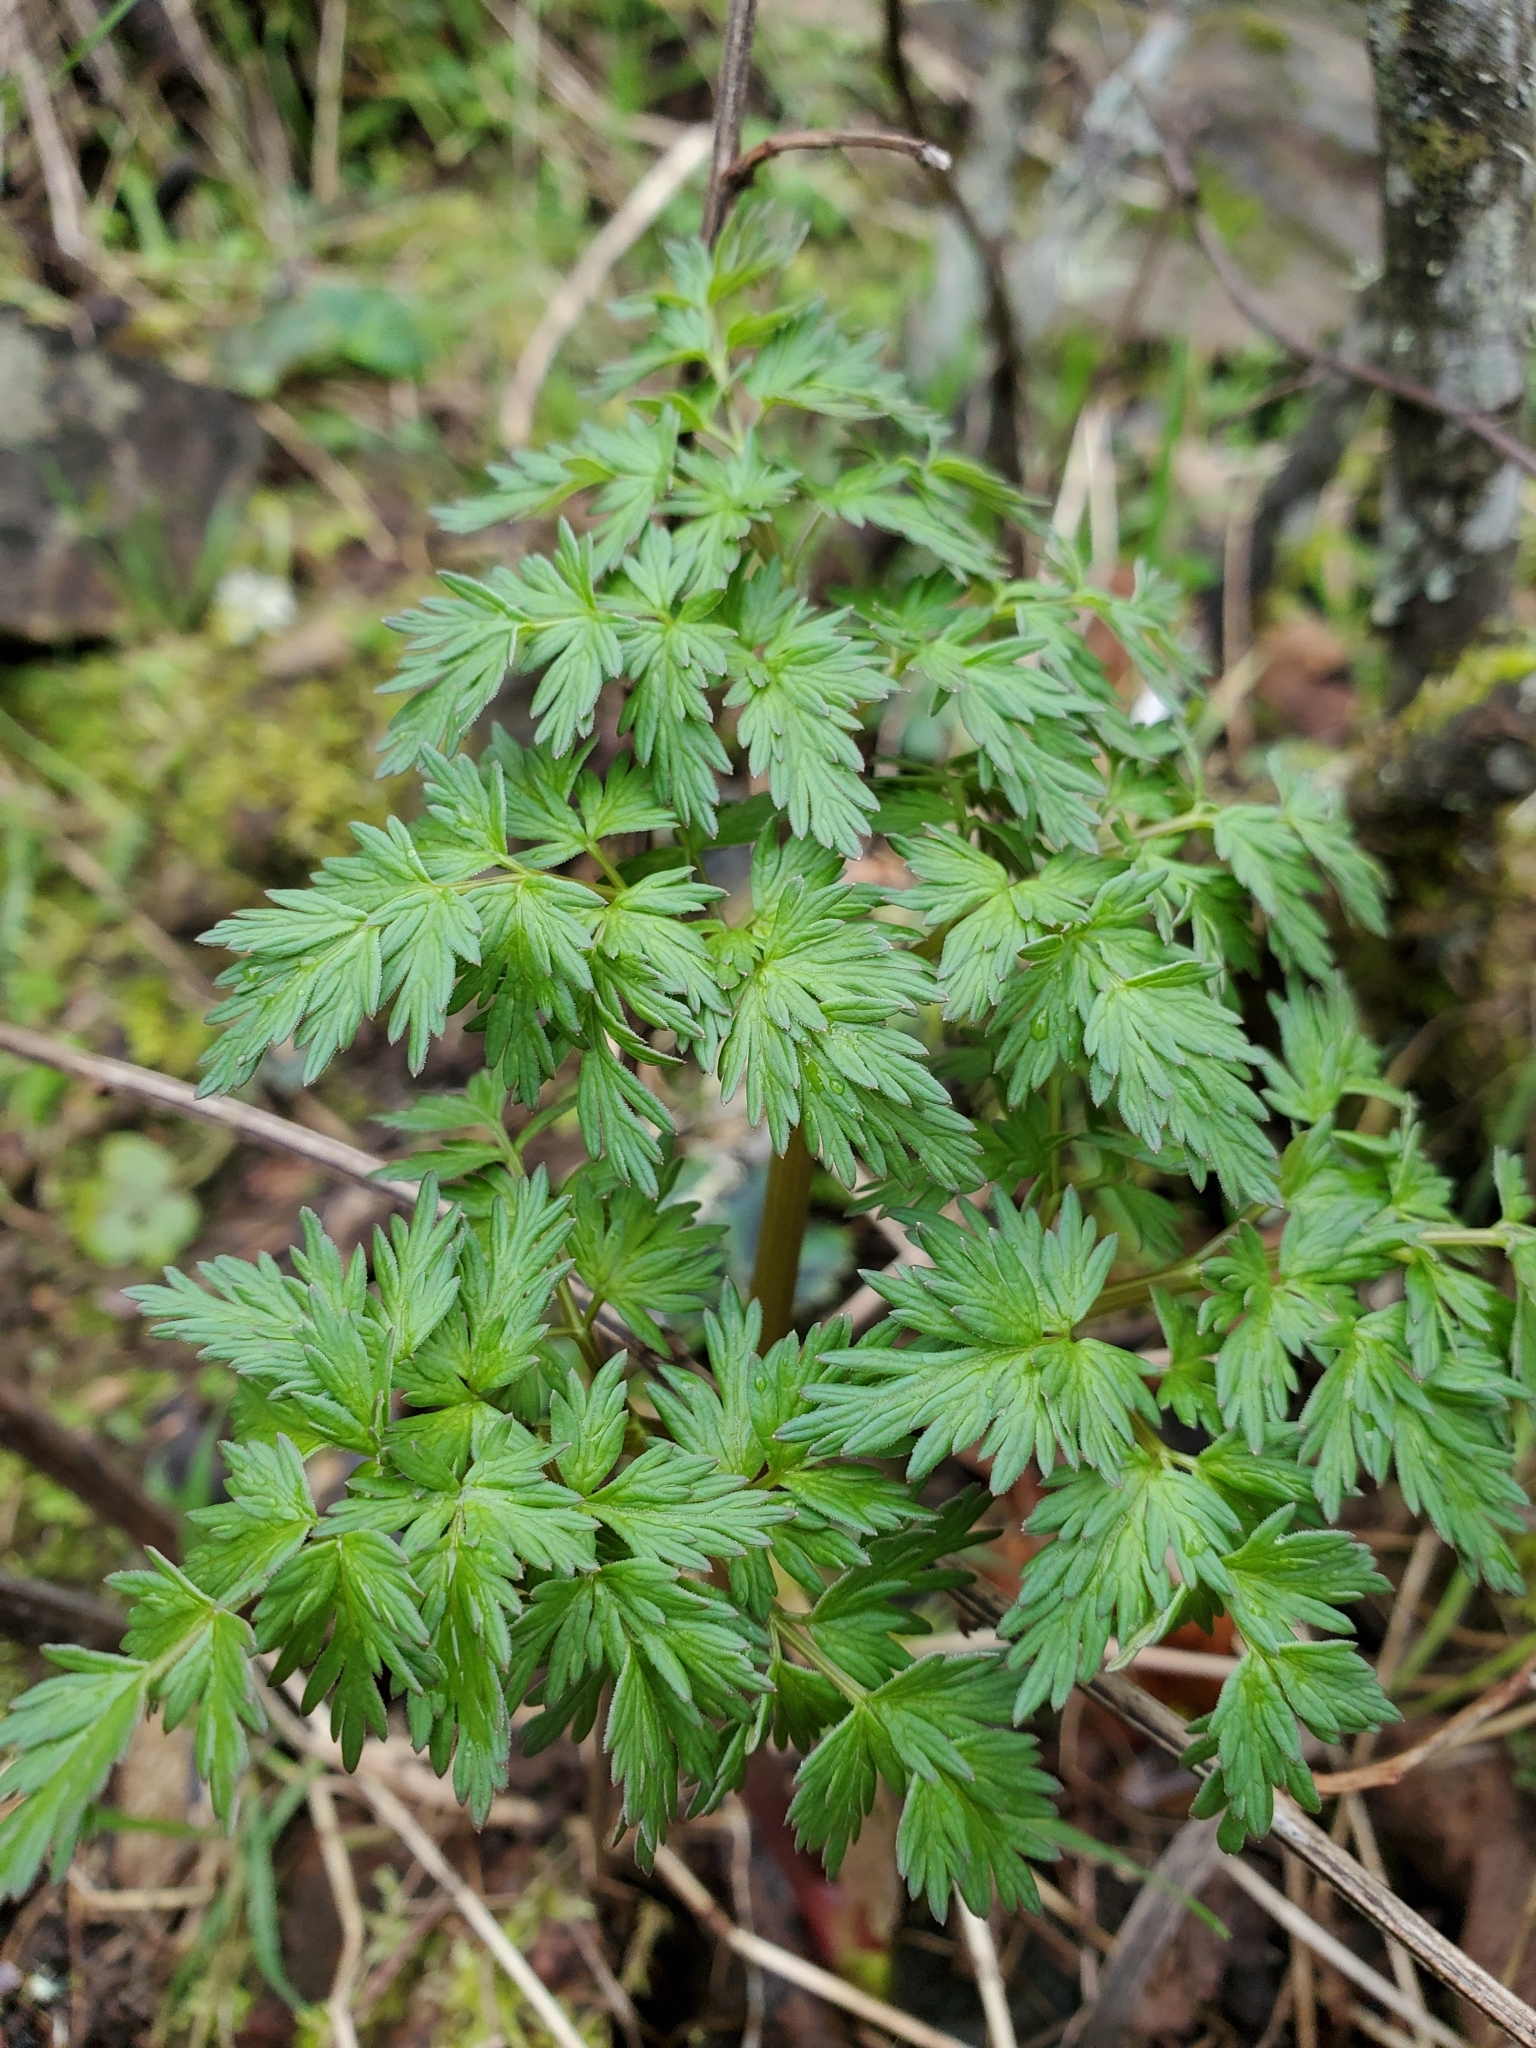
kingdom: Plantae
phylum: Tracheophyta
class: Magnoliopsida
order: Apiales
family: Apiaceae
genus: Lomatium
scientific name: Lomatium dissectum
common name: Lomatium
